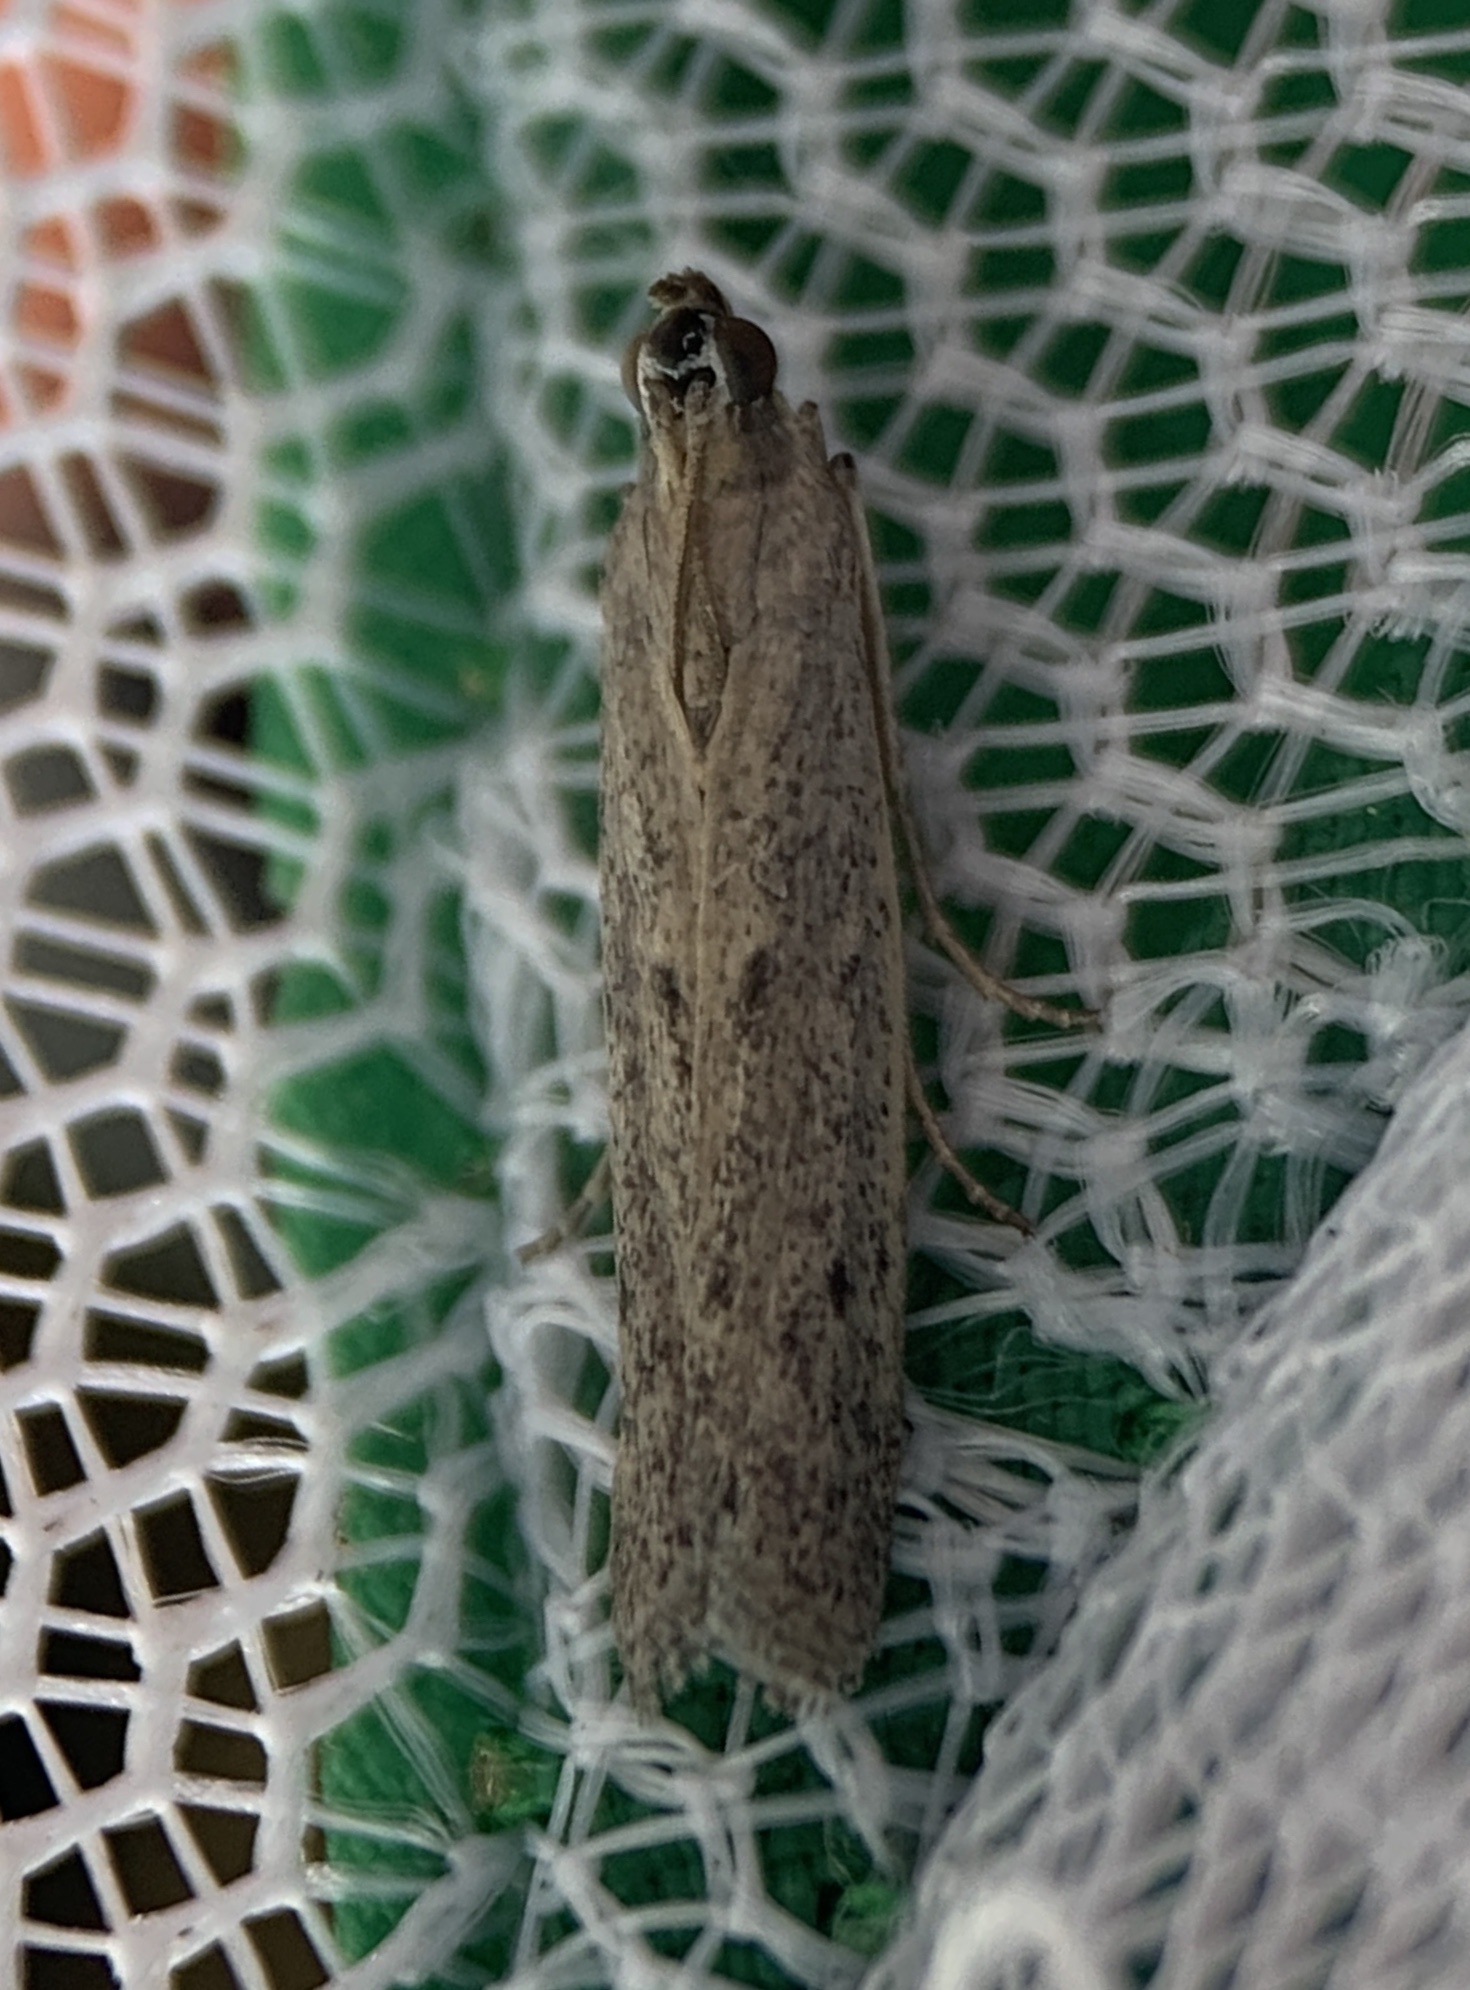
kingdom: Animalia
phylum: Arthropoda
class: Insecta
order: Lepidoptera
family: Pyralidae
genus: Homoeosoma
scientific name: Homoeosoma electella
